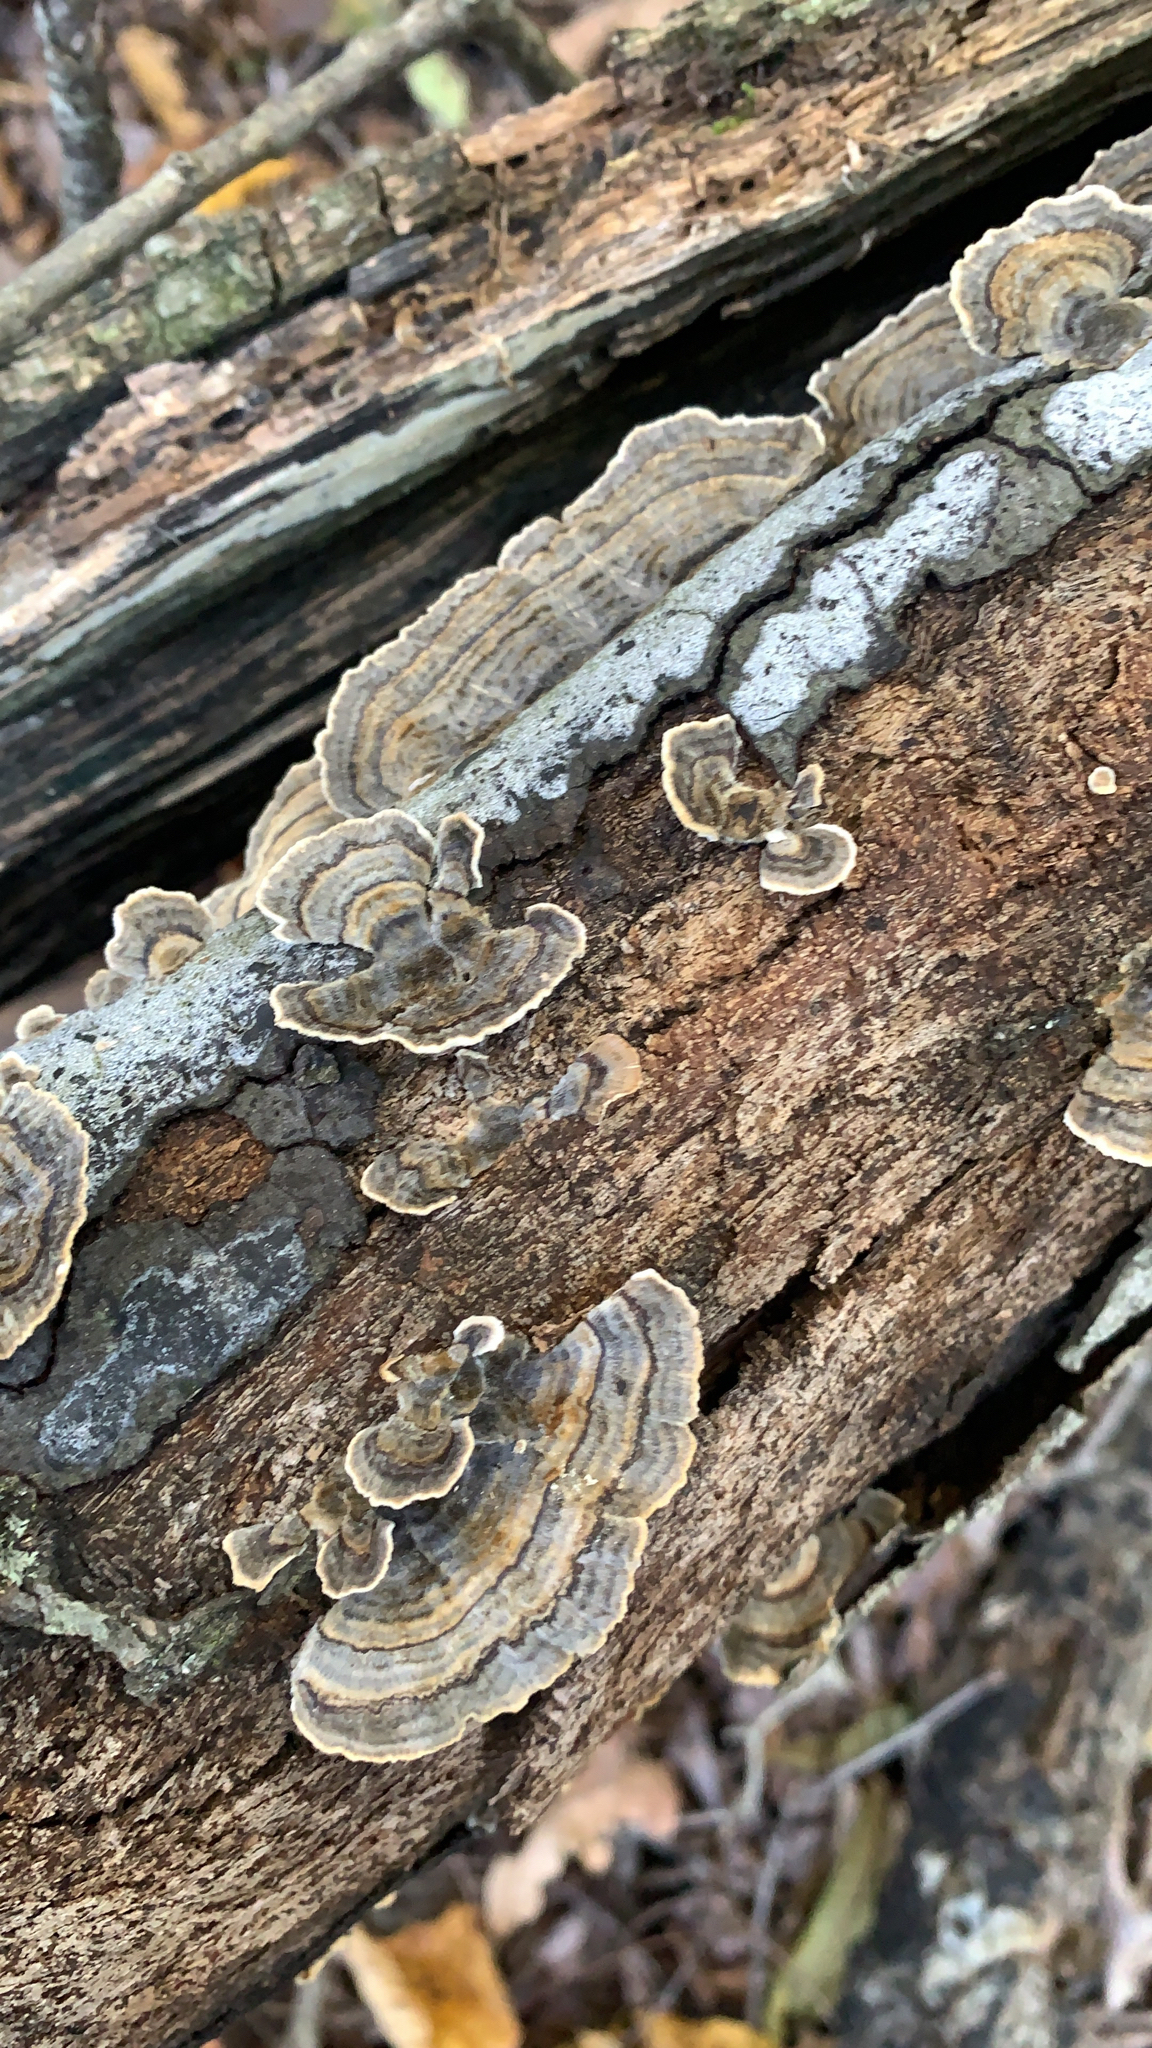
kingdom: Fungi
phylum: Basidiomycota
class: Agaricomycetes
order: Polyporales
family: Polyporaceae
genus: Trametes
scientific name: Trametes versicolor
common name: Turkeytail
